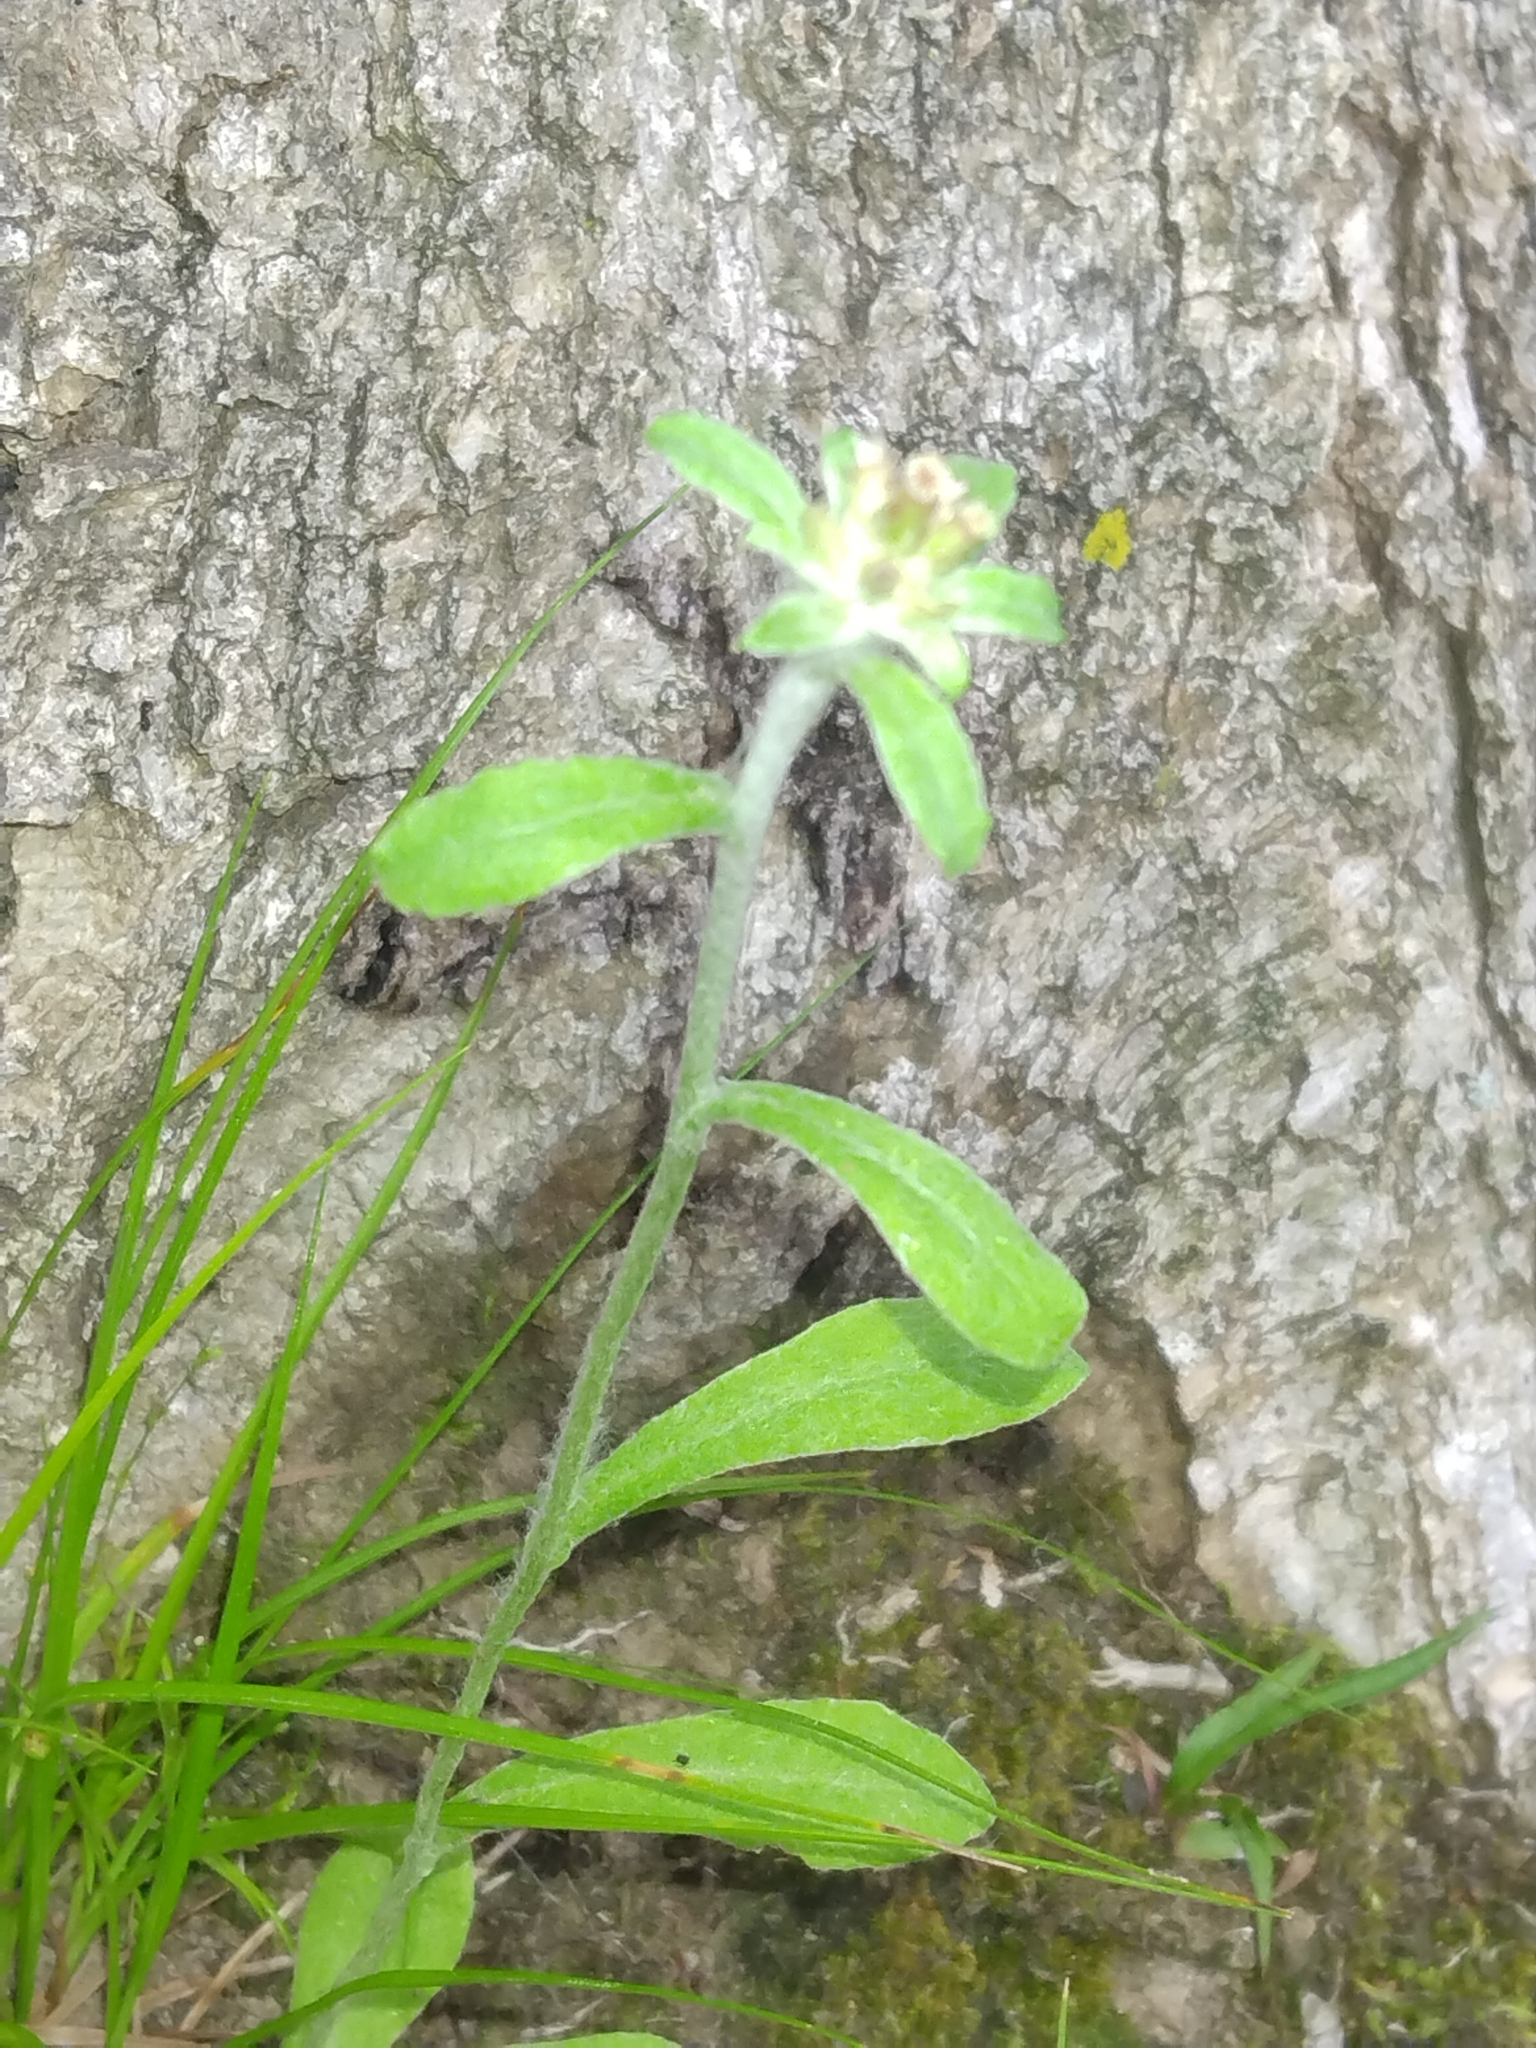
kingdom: Plantae
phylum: Tracheophyta
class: Magnoliopsida
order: Asterales
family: Asteraceae
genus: Gamochaeta
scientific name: Gamochaeta purpurea
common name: Purple cudweed
